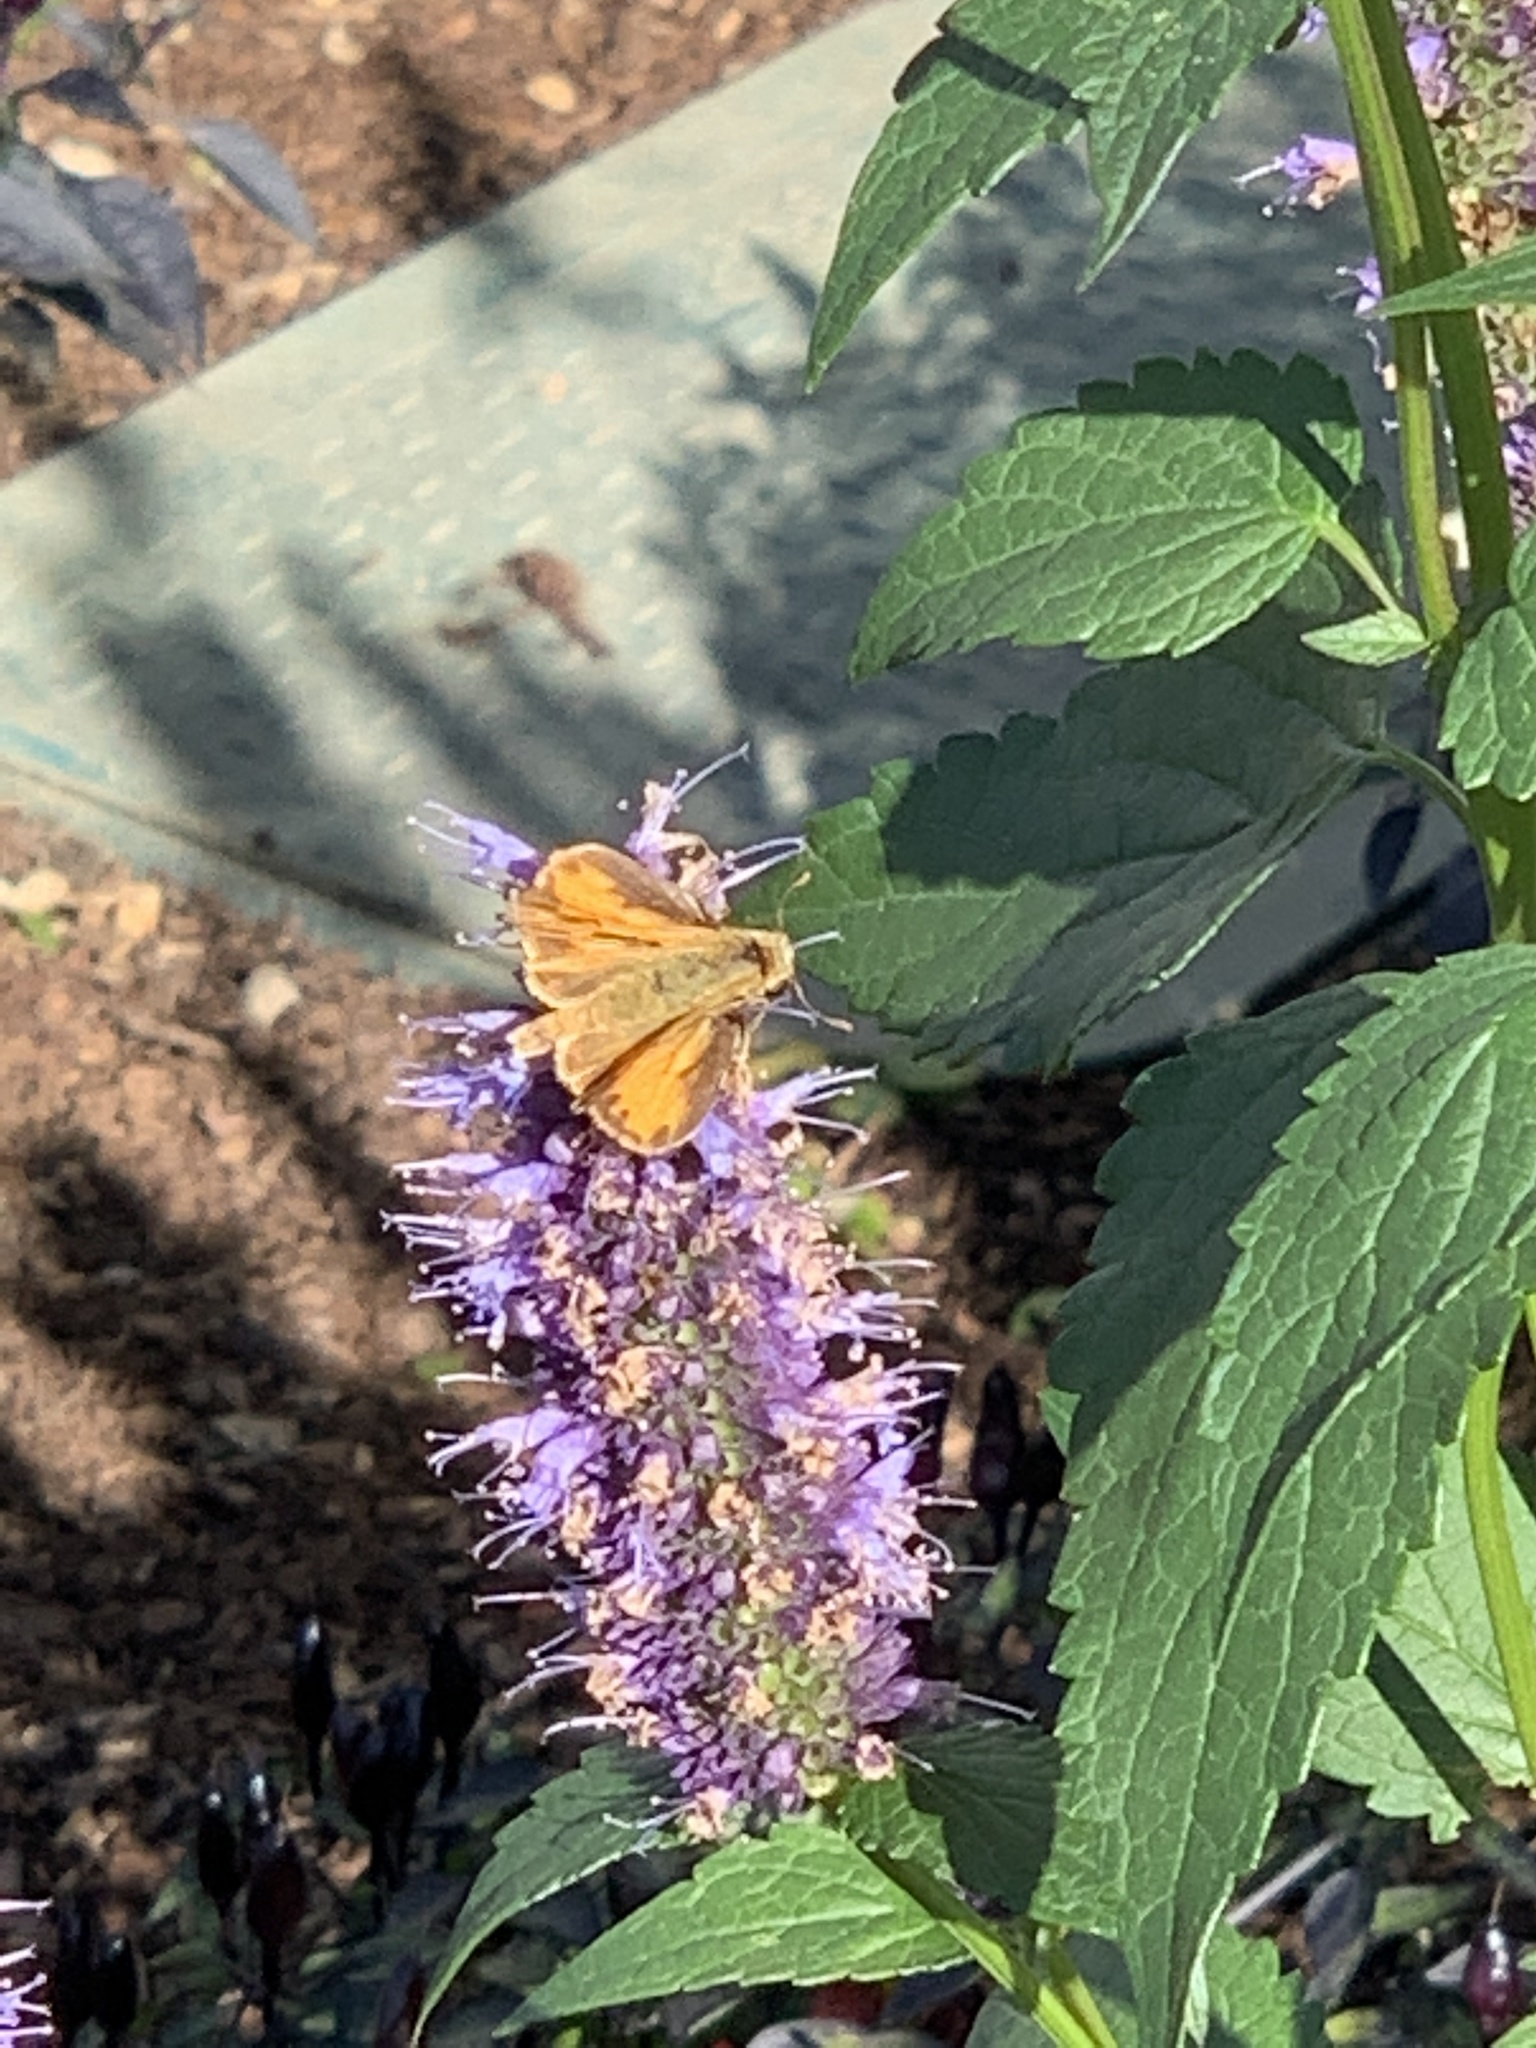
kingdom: Animalia
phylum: Arthropoda
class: Insecta
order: Lepidoptera
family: Hesperiidae
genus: Hylephila
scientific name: Hylephila phyleus
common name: Fiery skipper
